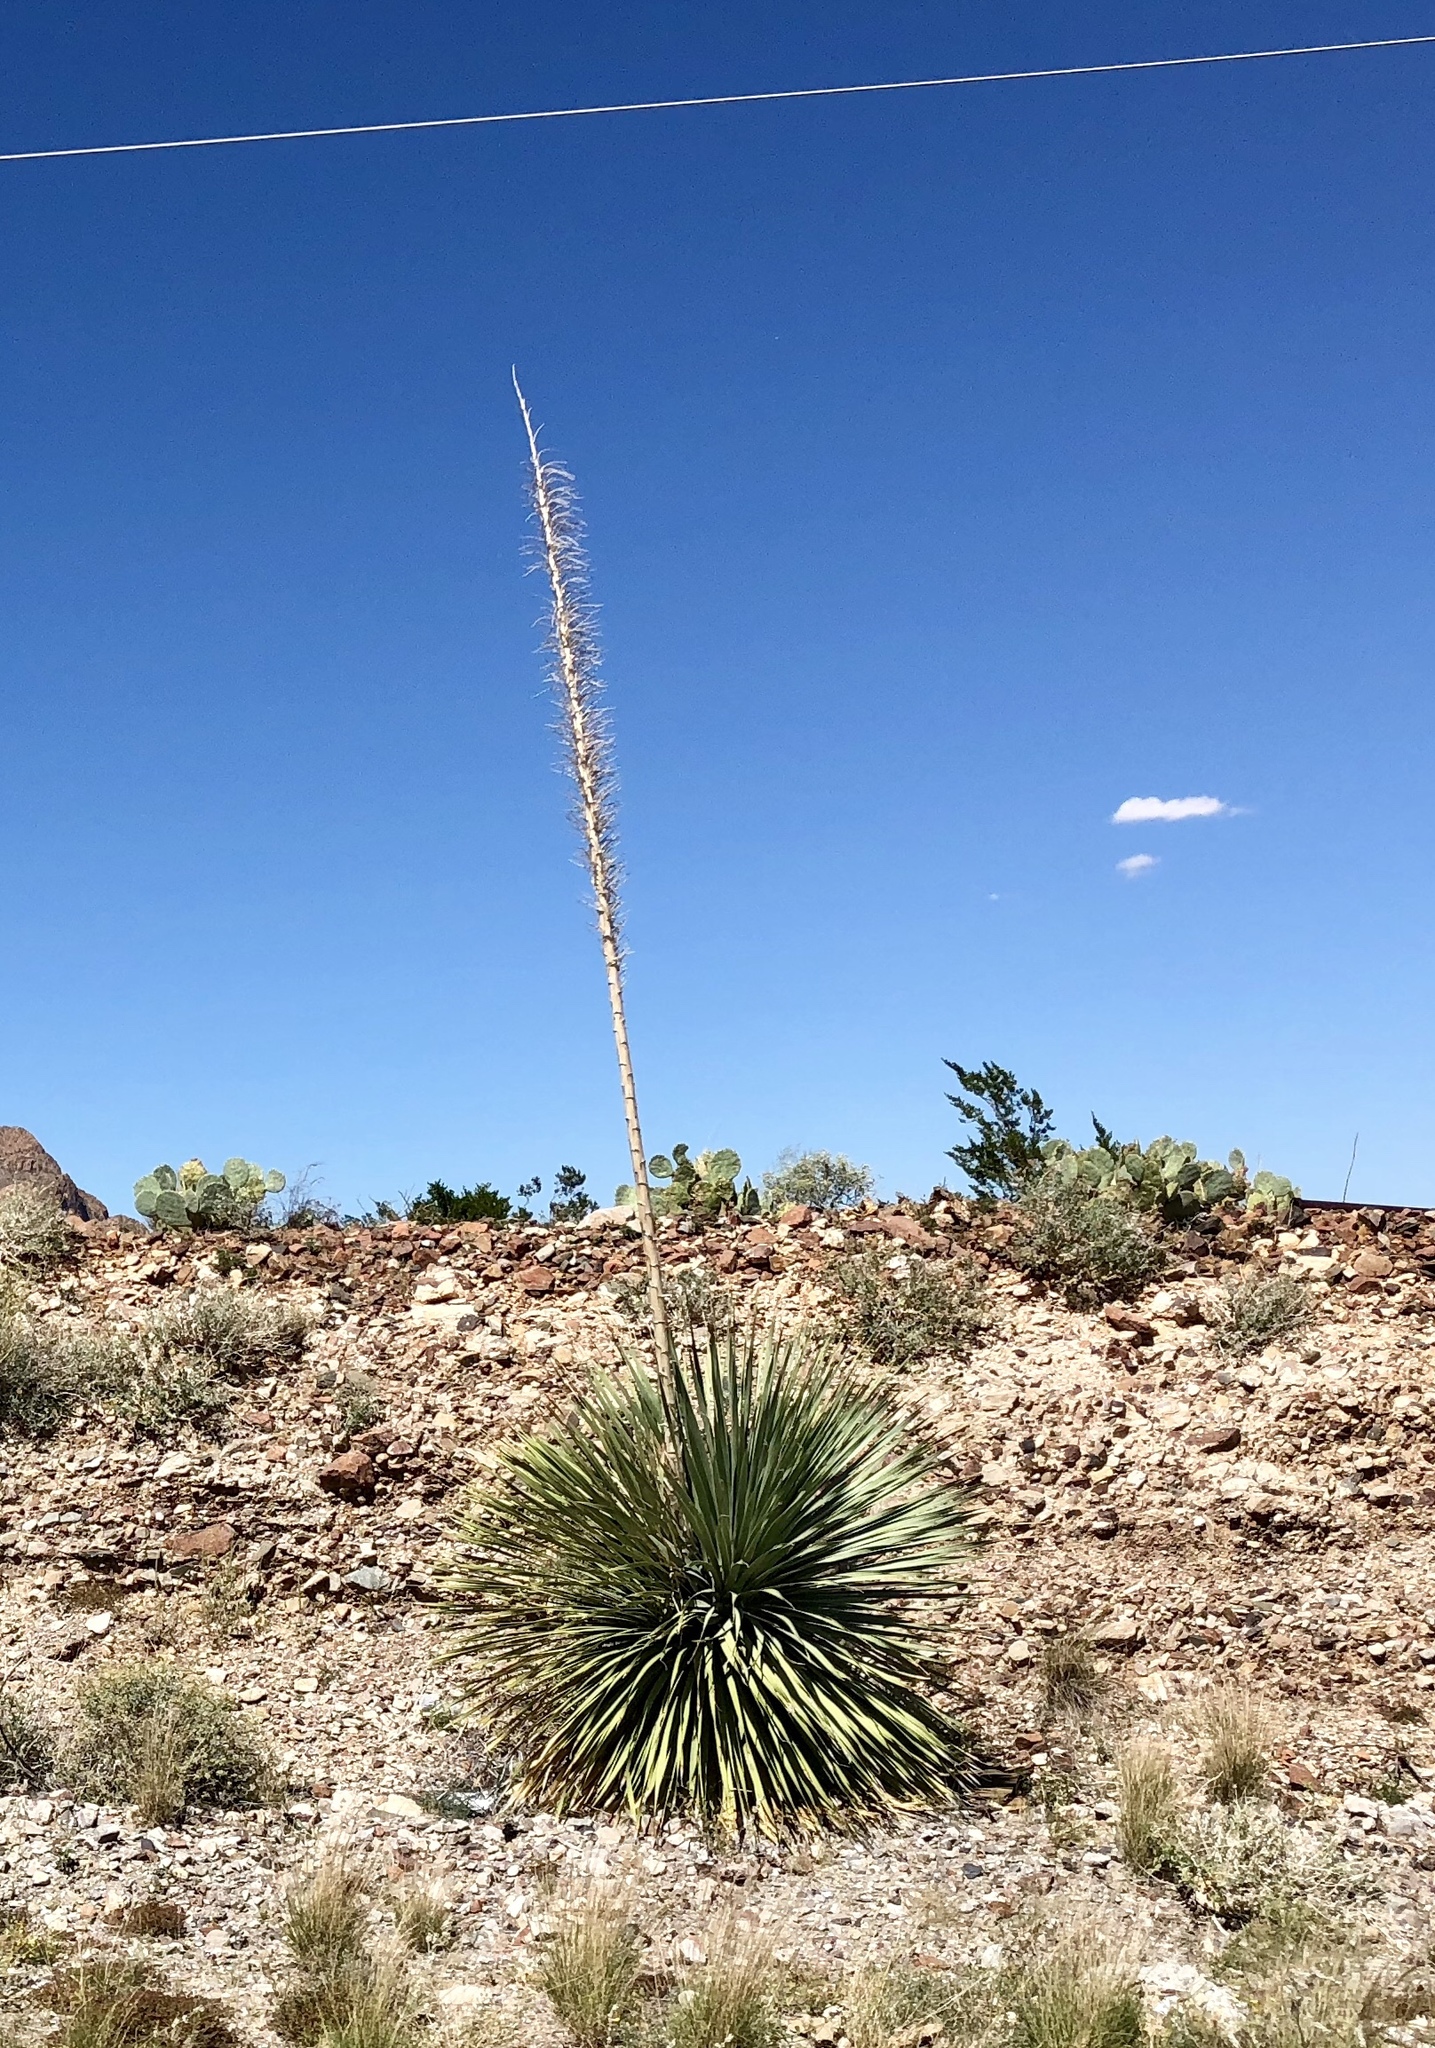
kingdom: Plantae
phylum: Tracheophyta
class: Liliopsida
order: Asparagales
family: Asparagaceae
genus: Dasylirion
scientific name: Dasylirion wheeleri
